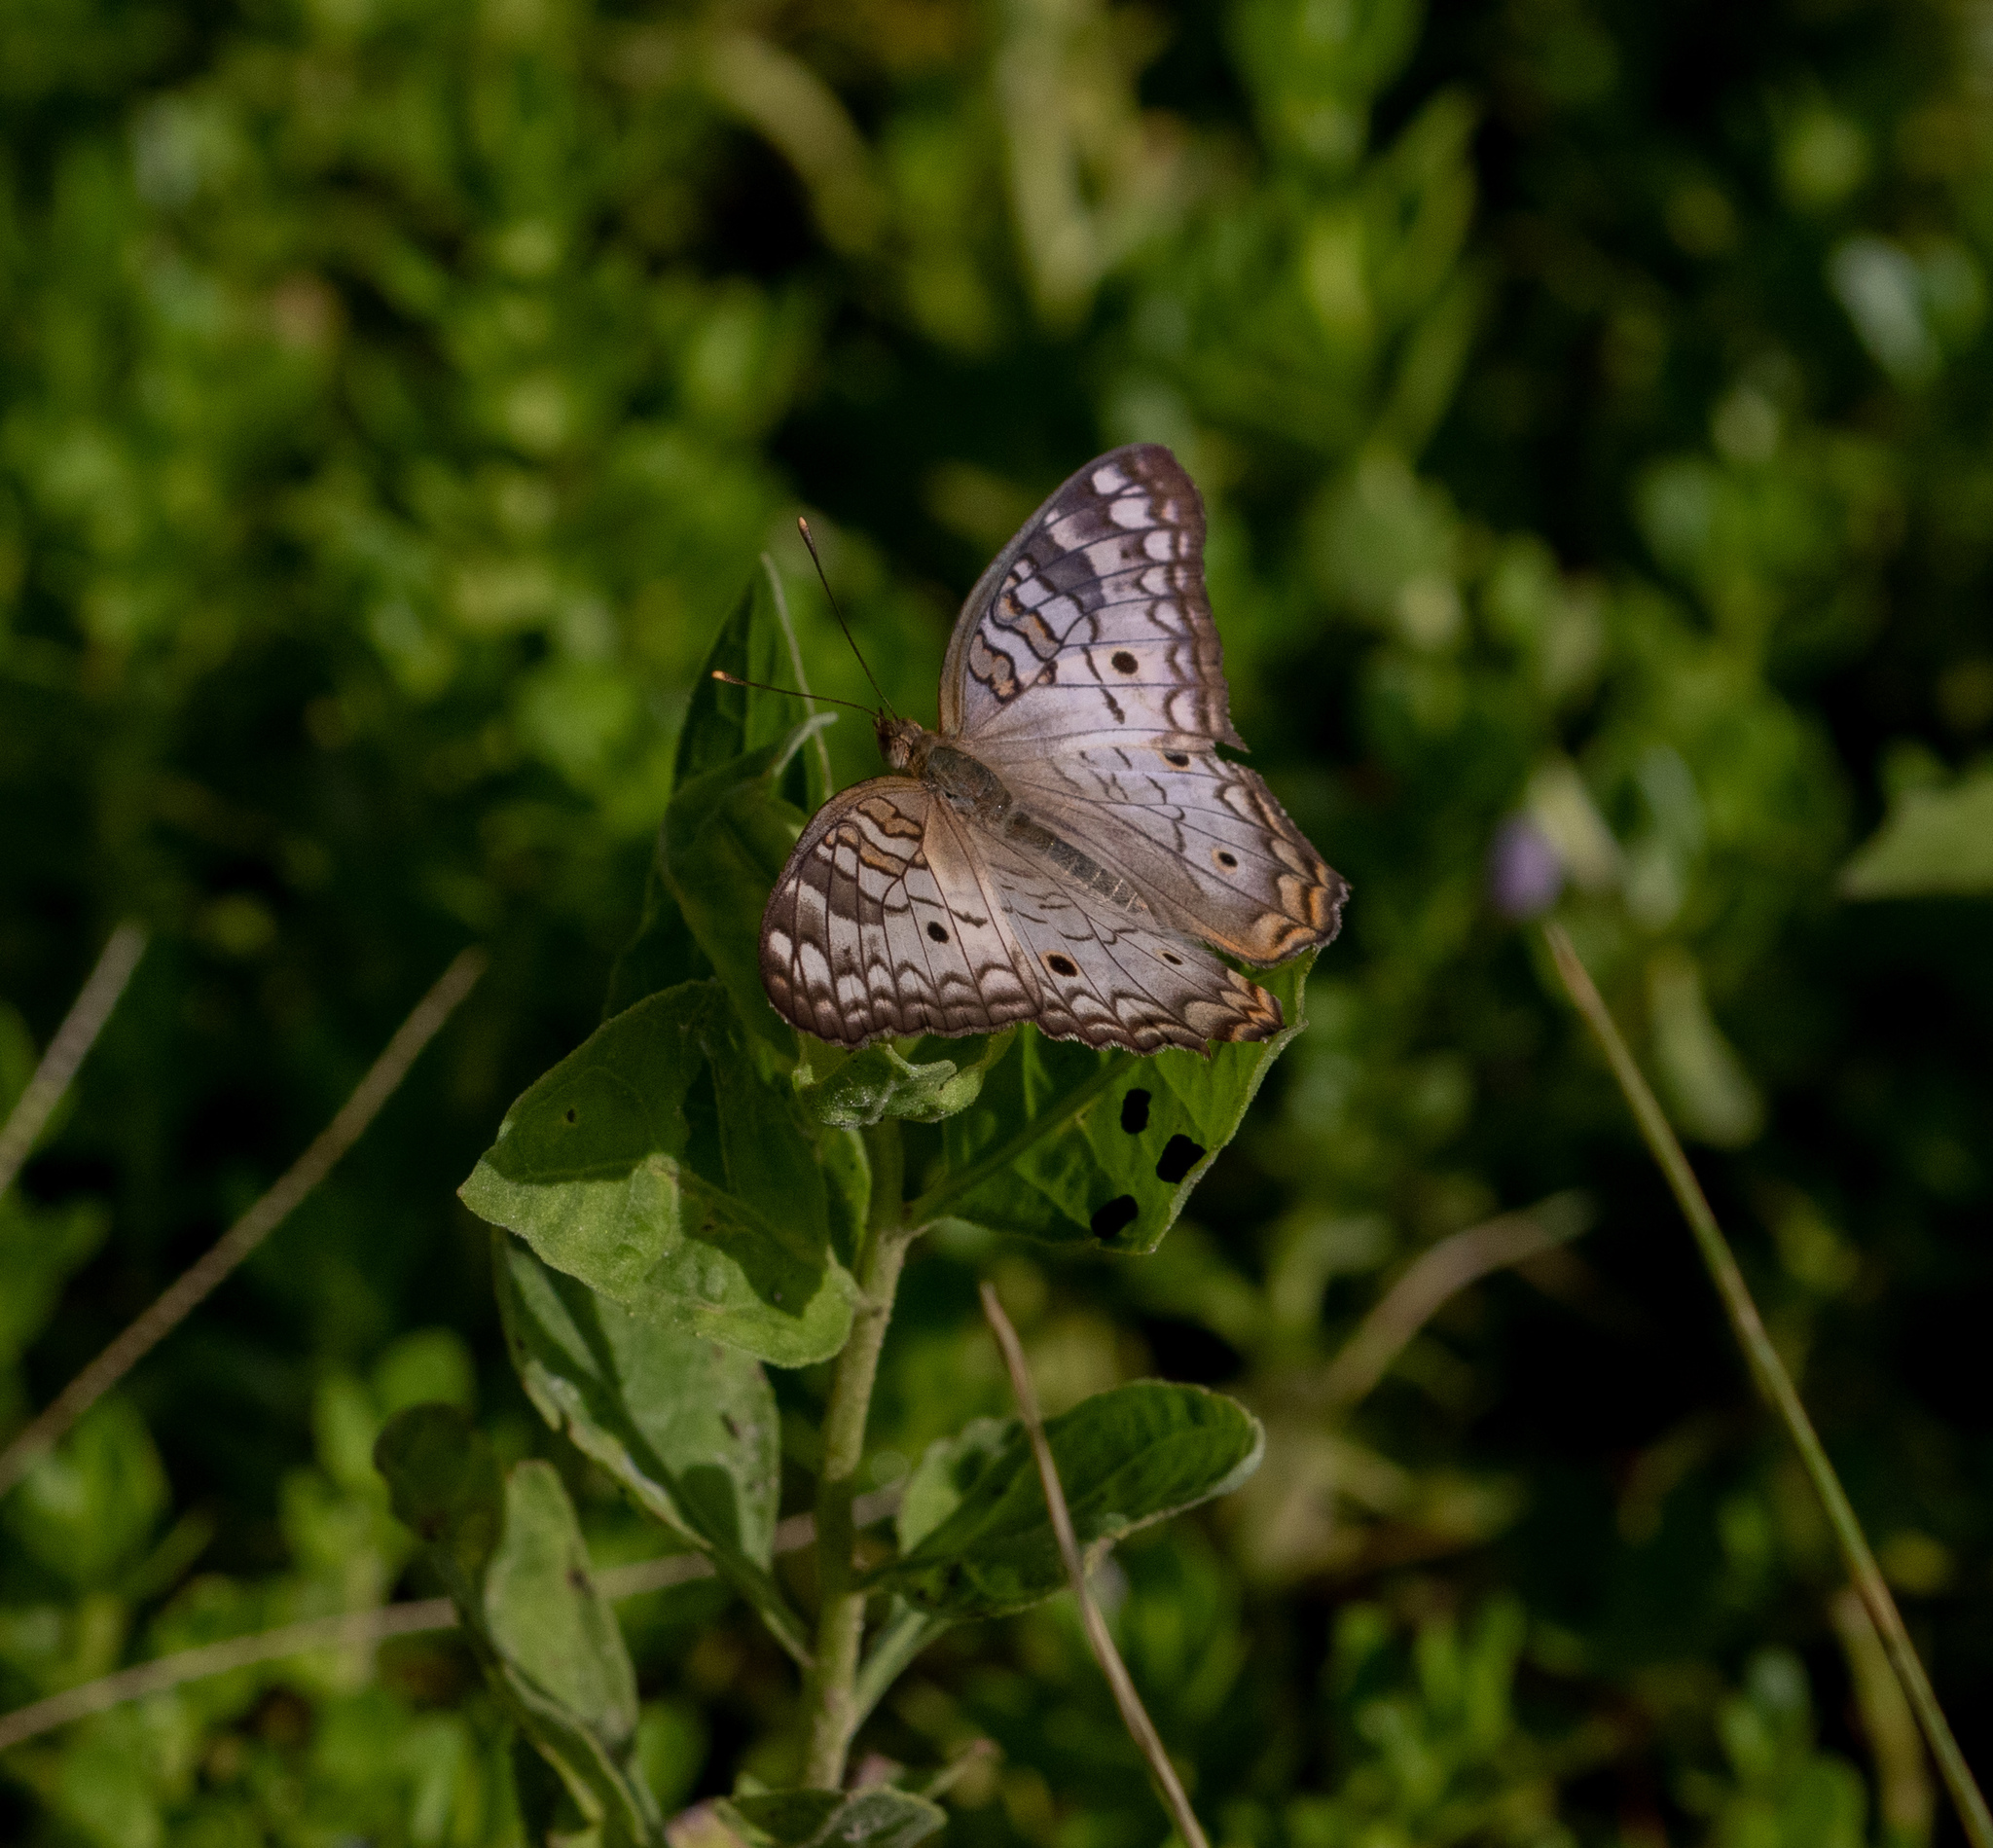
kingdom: Animalia
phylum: Arthropoda
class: Insecta
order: Lepidoptera
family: Nymphalidae
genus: Anartia
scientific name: Anartia jatrophae
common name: White peacock
